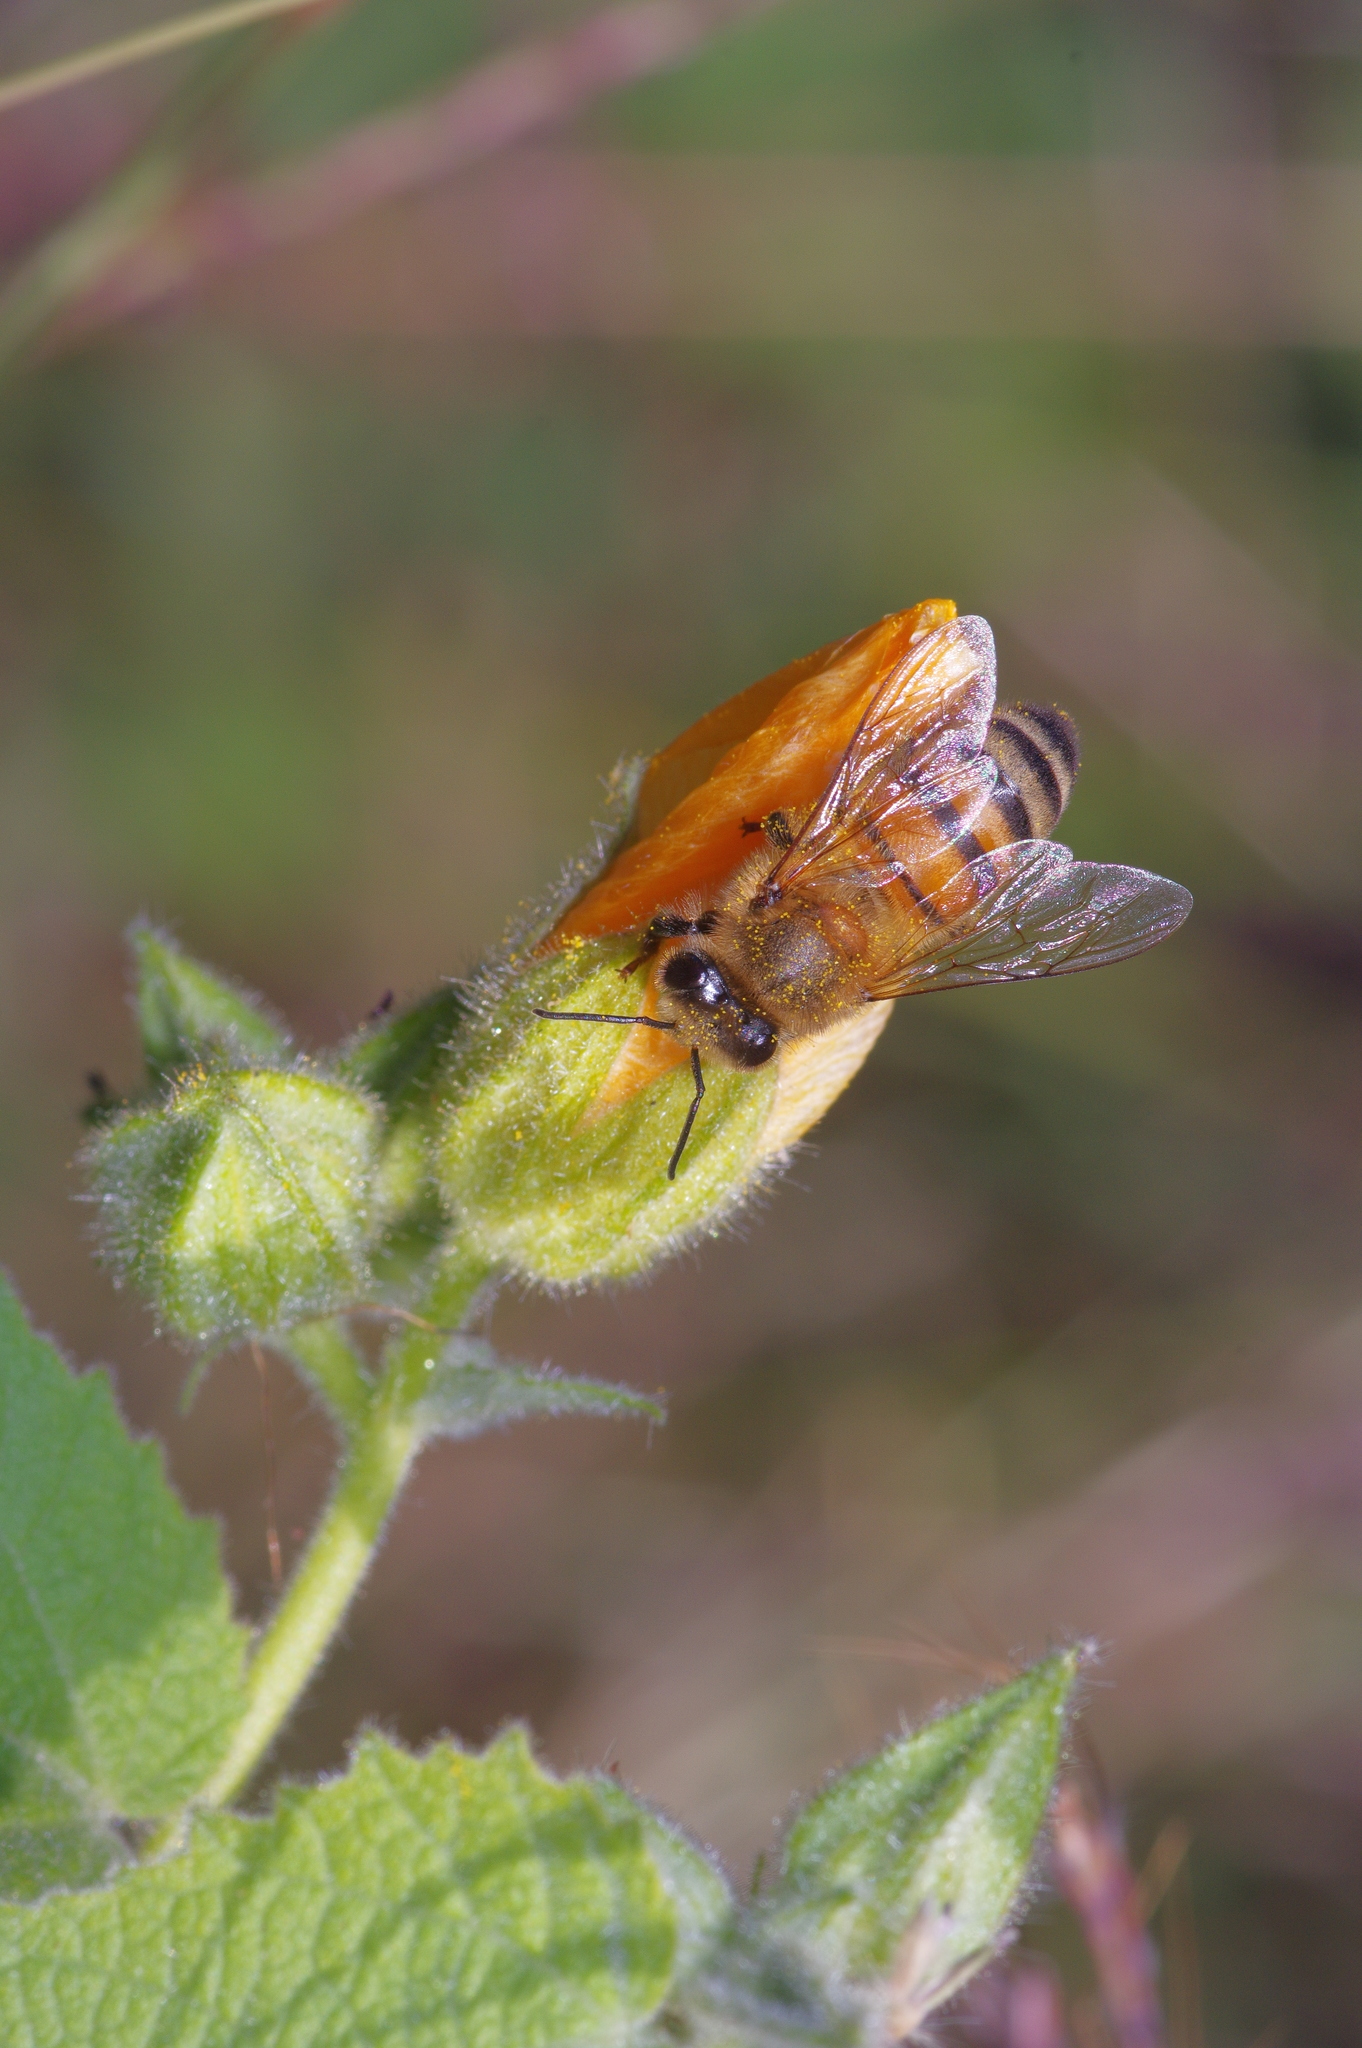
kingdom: Animalia
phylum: Arthropoda
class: Insecta
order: Hymenoptera
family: Apidae
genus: Apis
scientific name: Apis mellifera
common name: Honey bee
